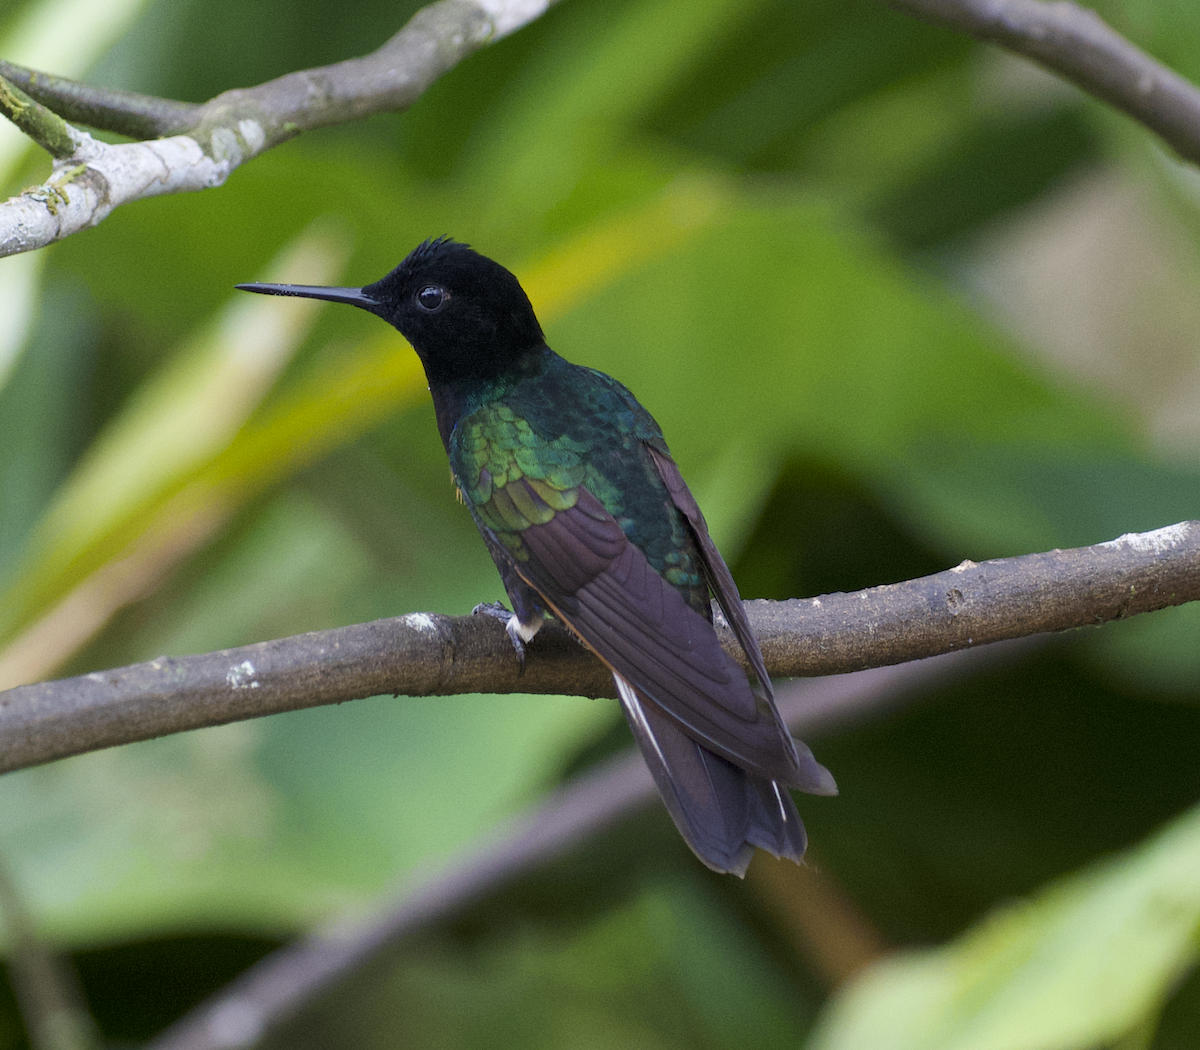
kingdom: Animalia
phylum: Chordata
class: Aves
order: Apodiformes
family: Trochilidae
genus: Boissonneaua
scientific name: Boissonneaua jardini
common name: Velvet-purple coronet
